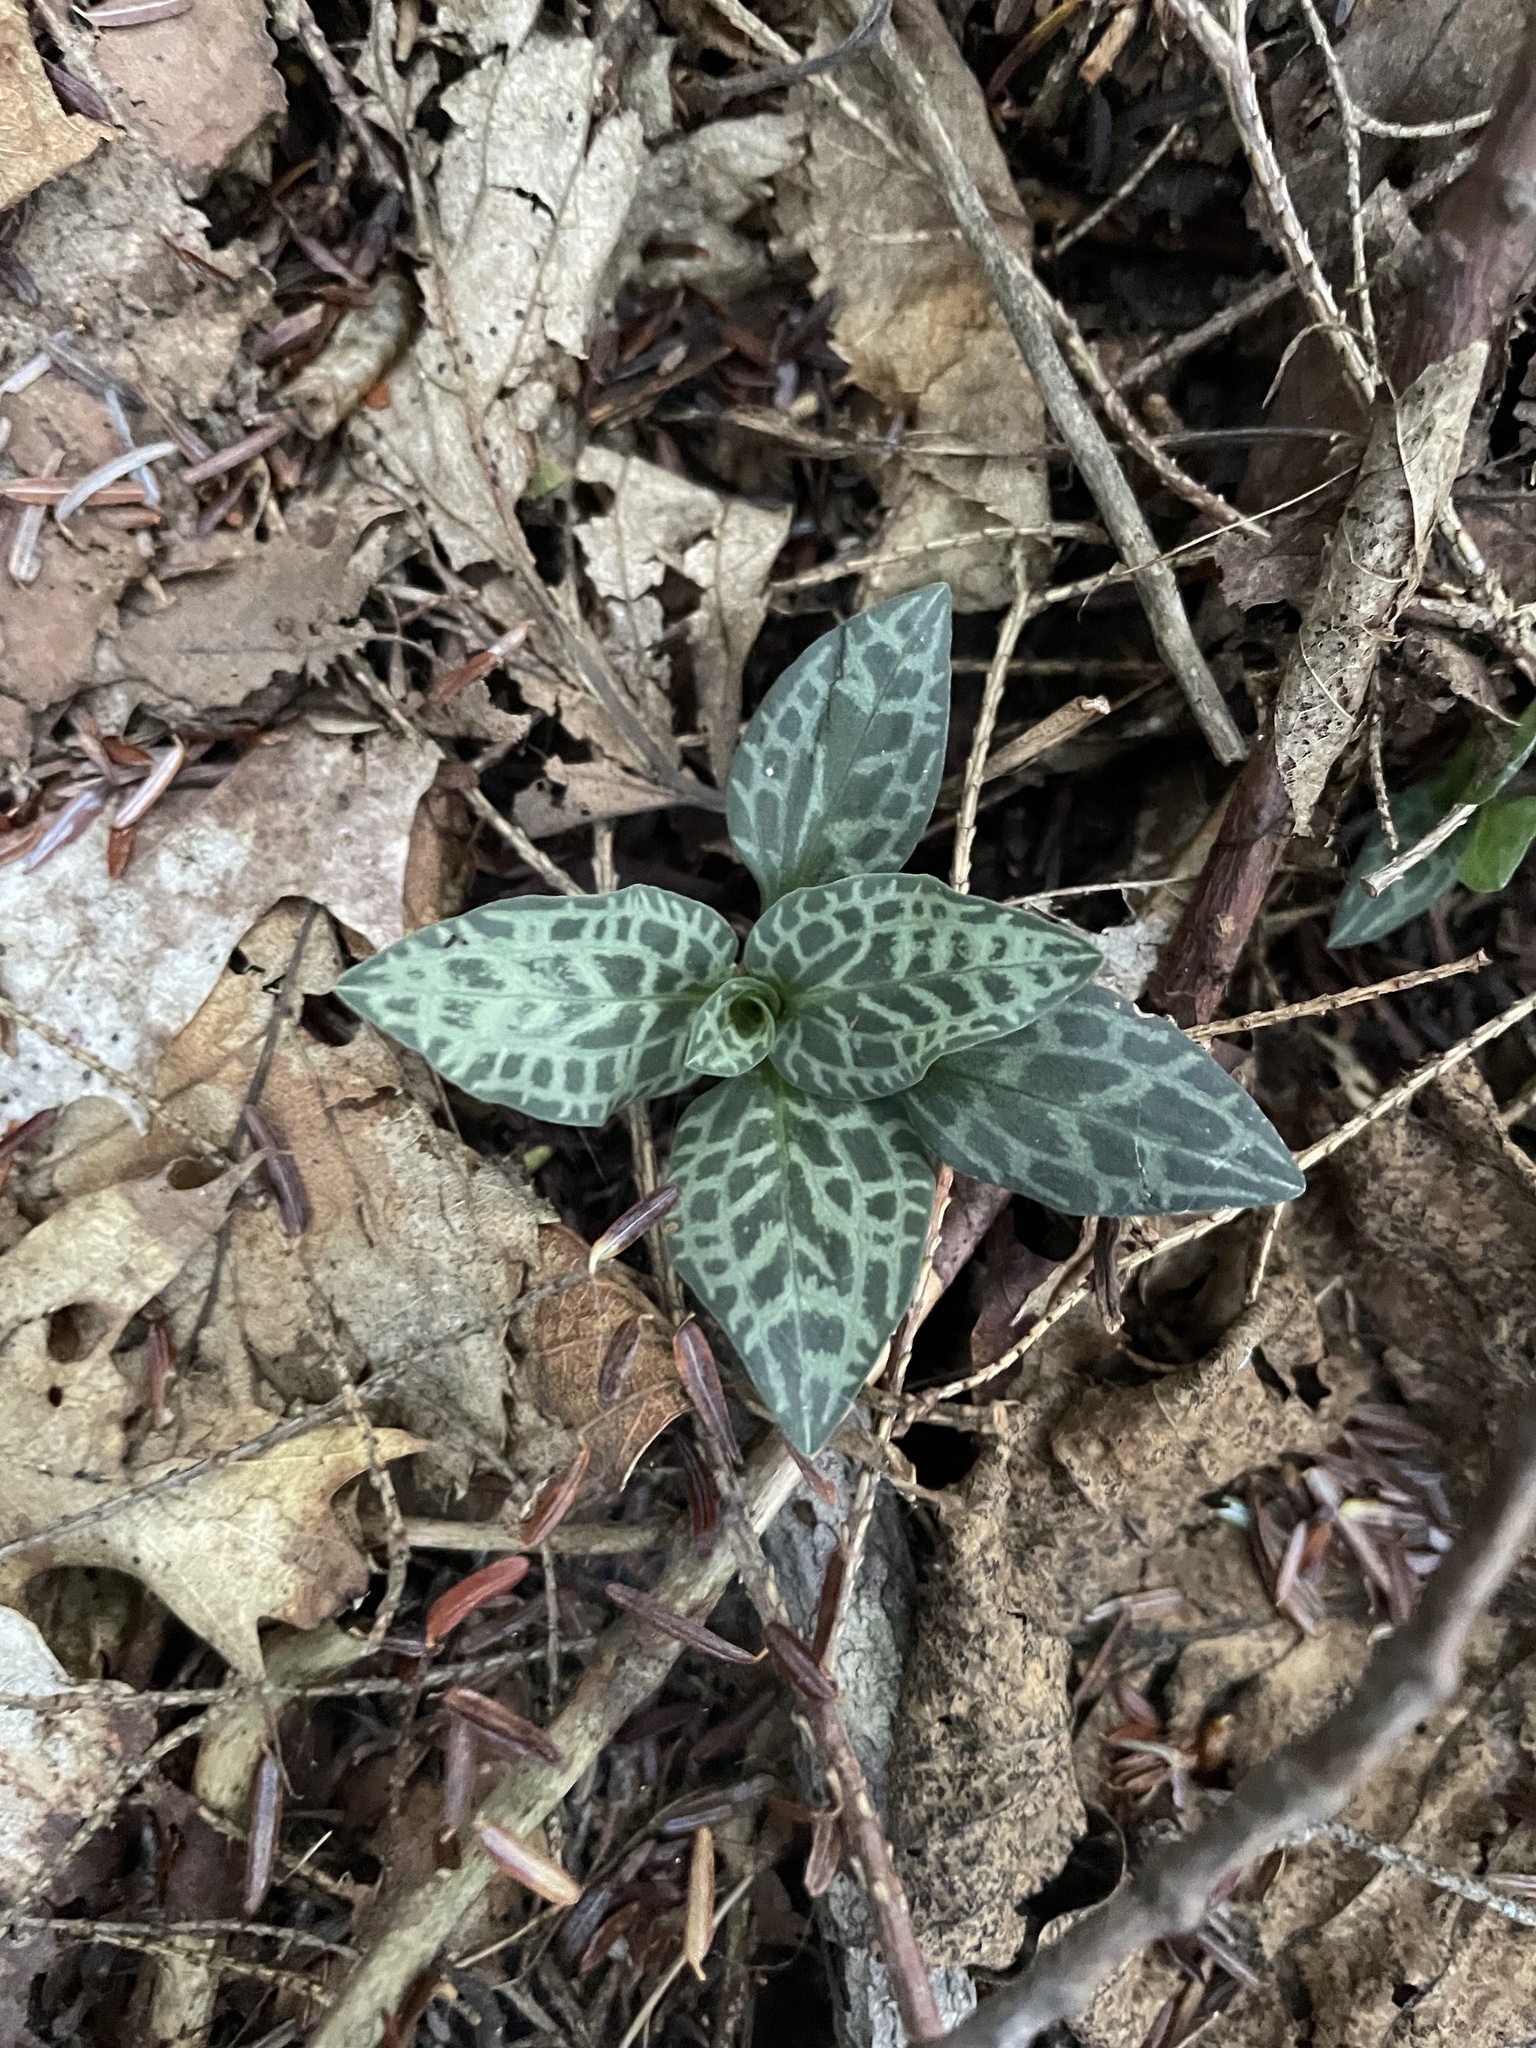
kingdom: Plantae
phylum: Tracheophyta
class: Liliopsida
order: Asparagales
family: Orchidaceae
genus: Goodyera
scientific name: Goodyera tesselata
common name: Checkered rattlesnake-plantain
